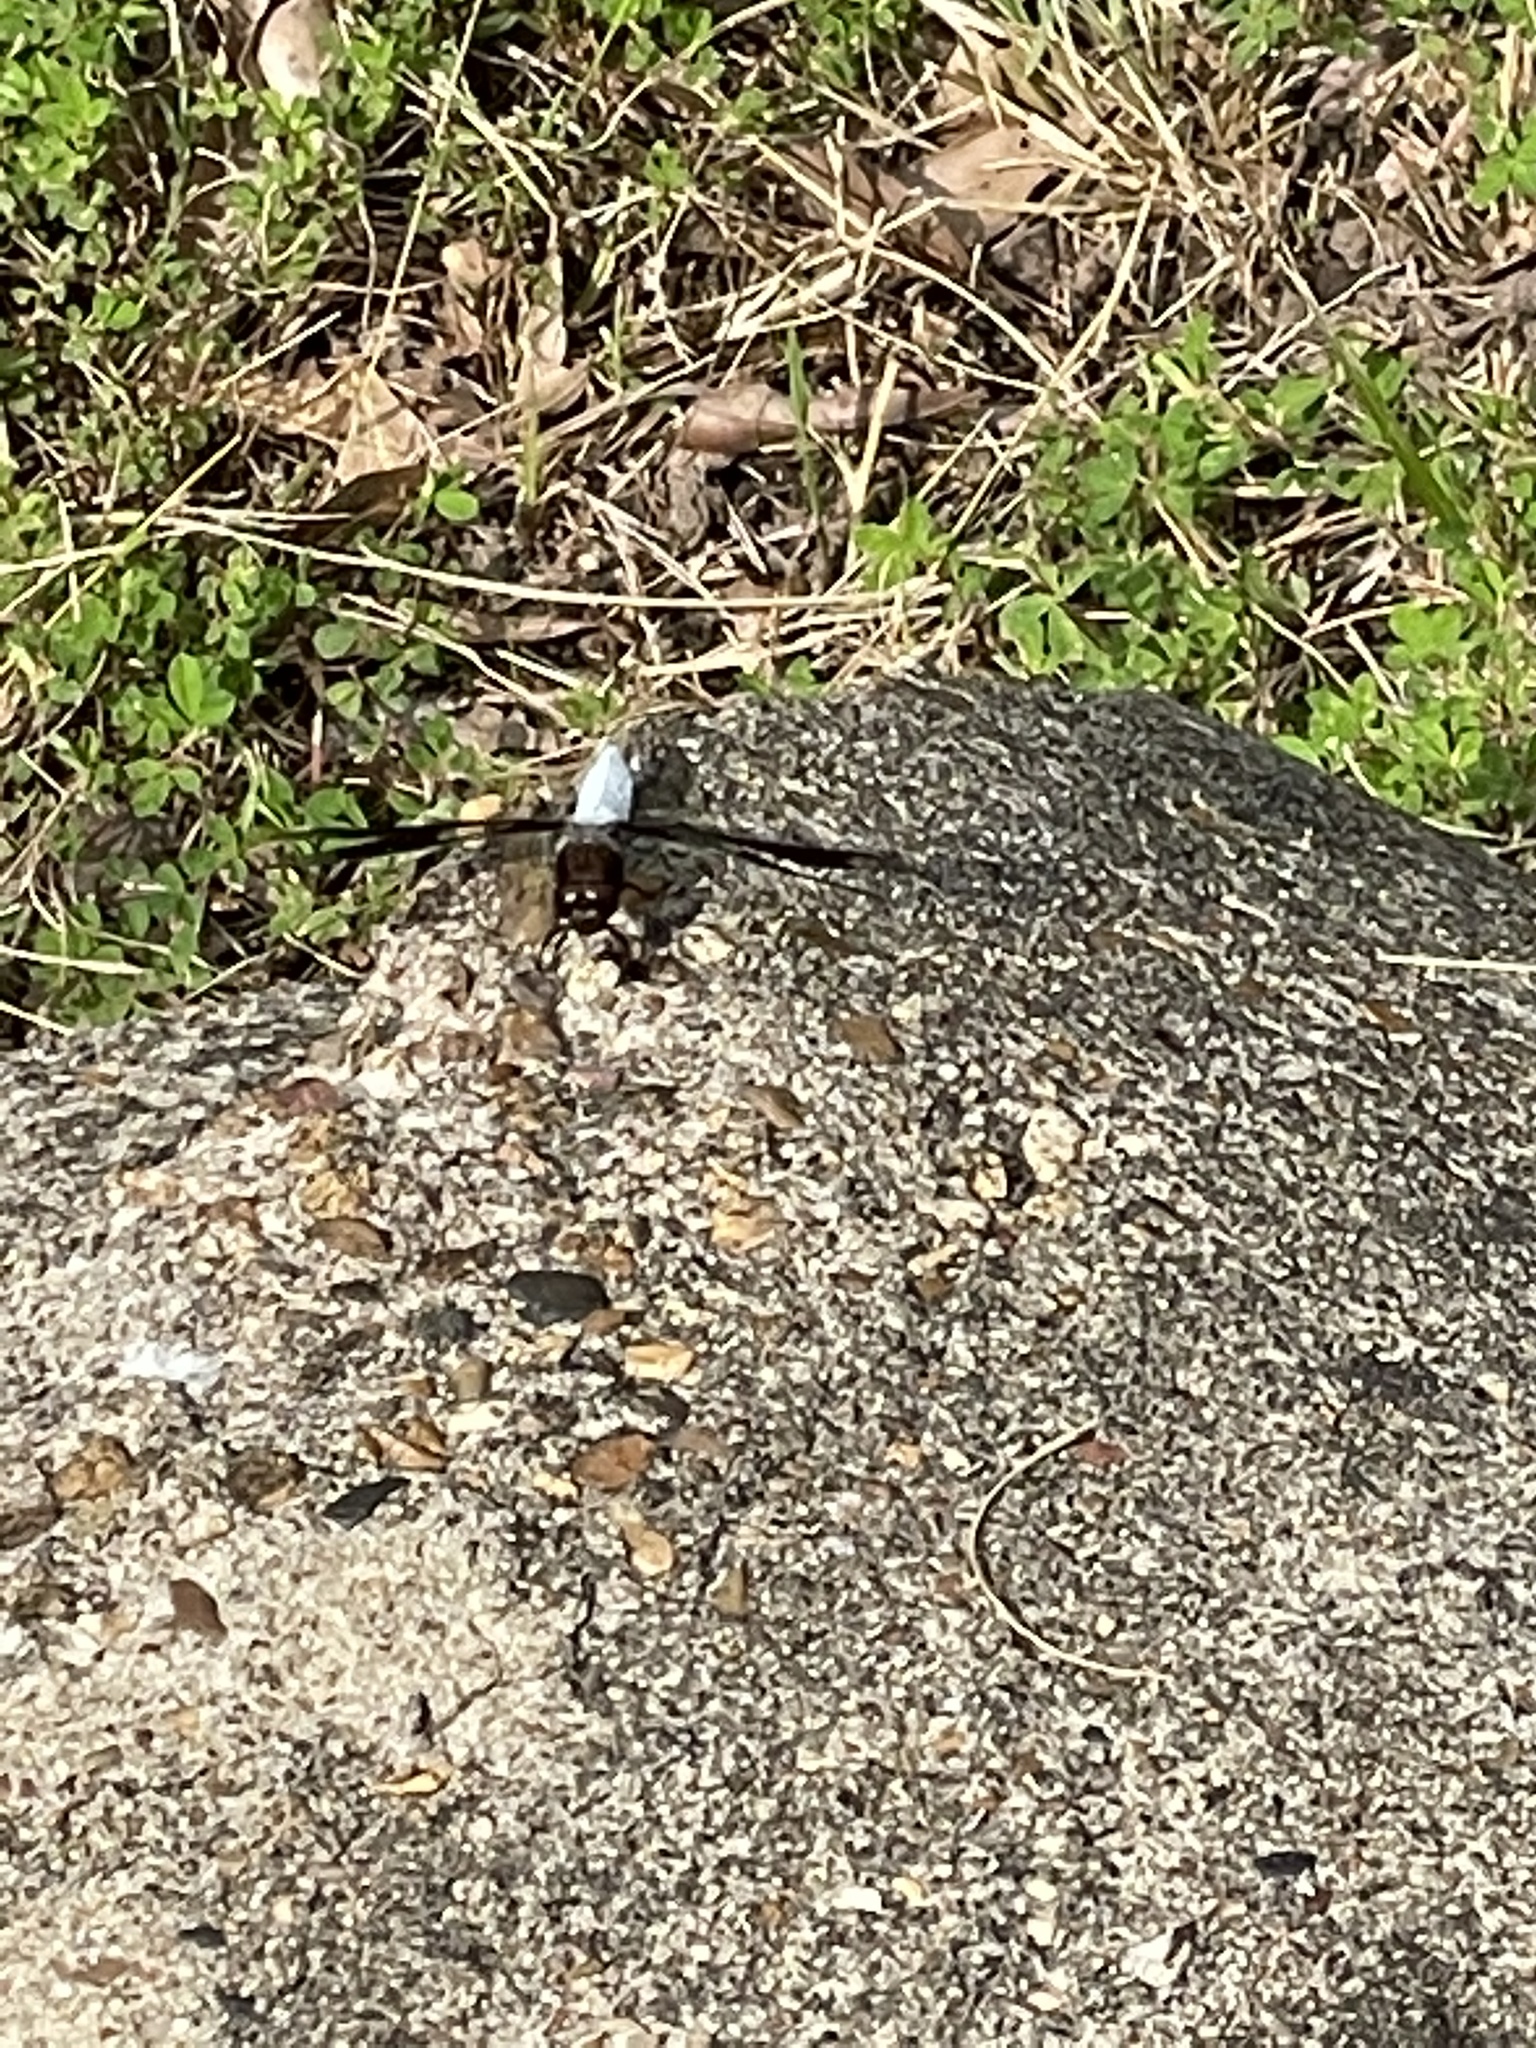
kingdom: Animalia
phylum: Arthropoda
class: Insecta
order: Odonata
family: Libellulidae
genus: Plathemis
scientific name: Plathemis lydia
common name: Common whitetail
